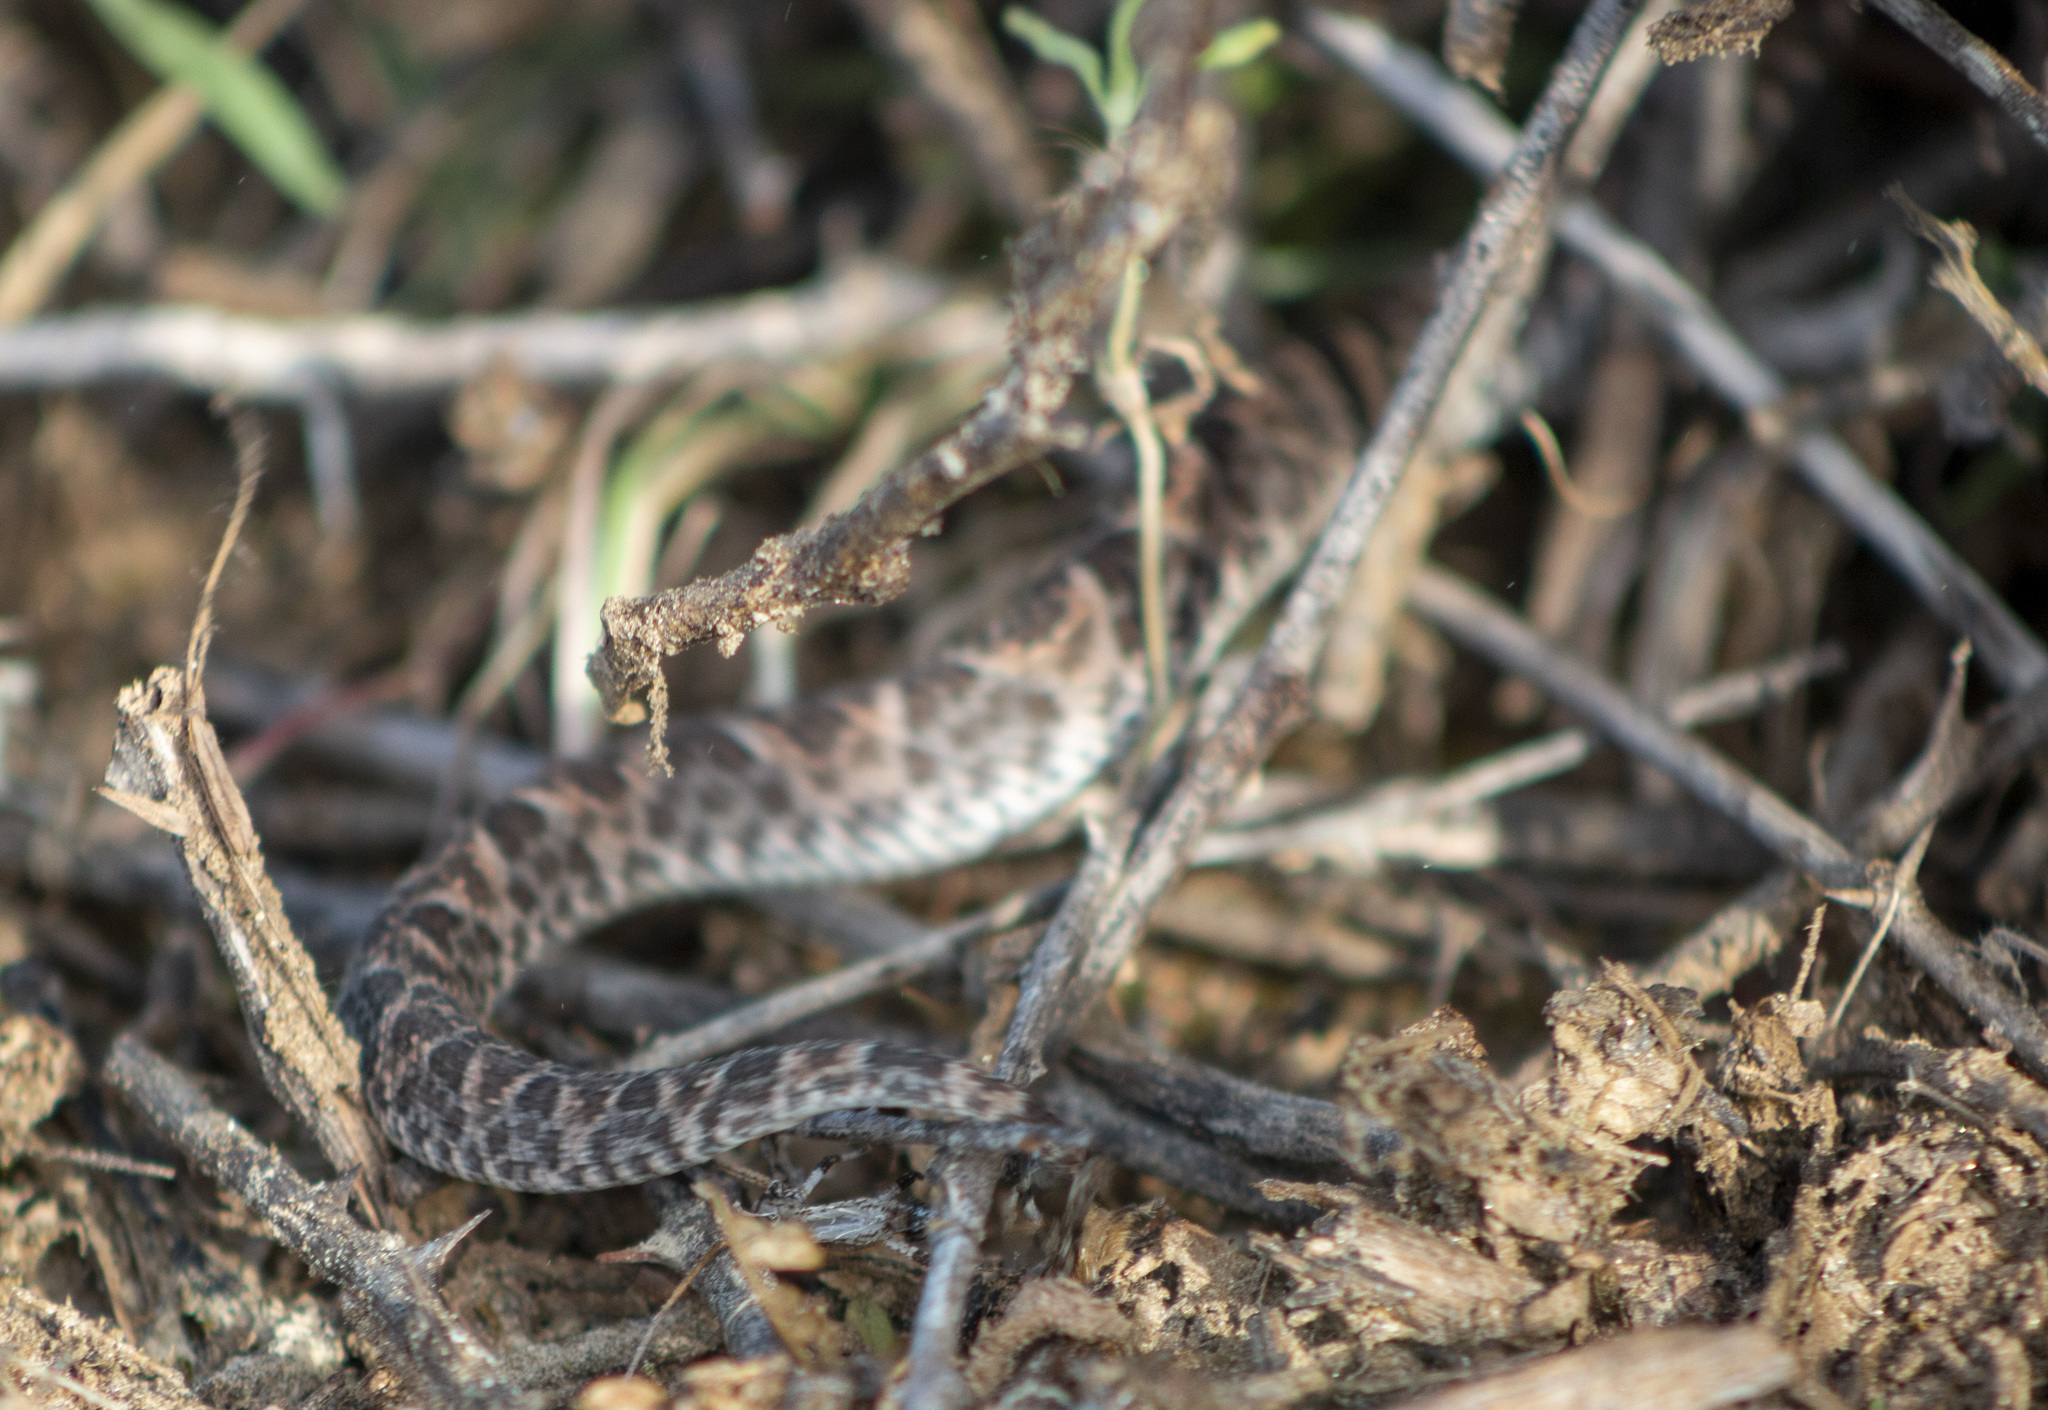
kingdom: Animalia
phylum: Chordata
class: Squamata
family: Viperidae
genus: Bothrops
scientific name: Bothrops erythromelas
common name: Caatinga lancehead
